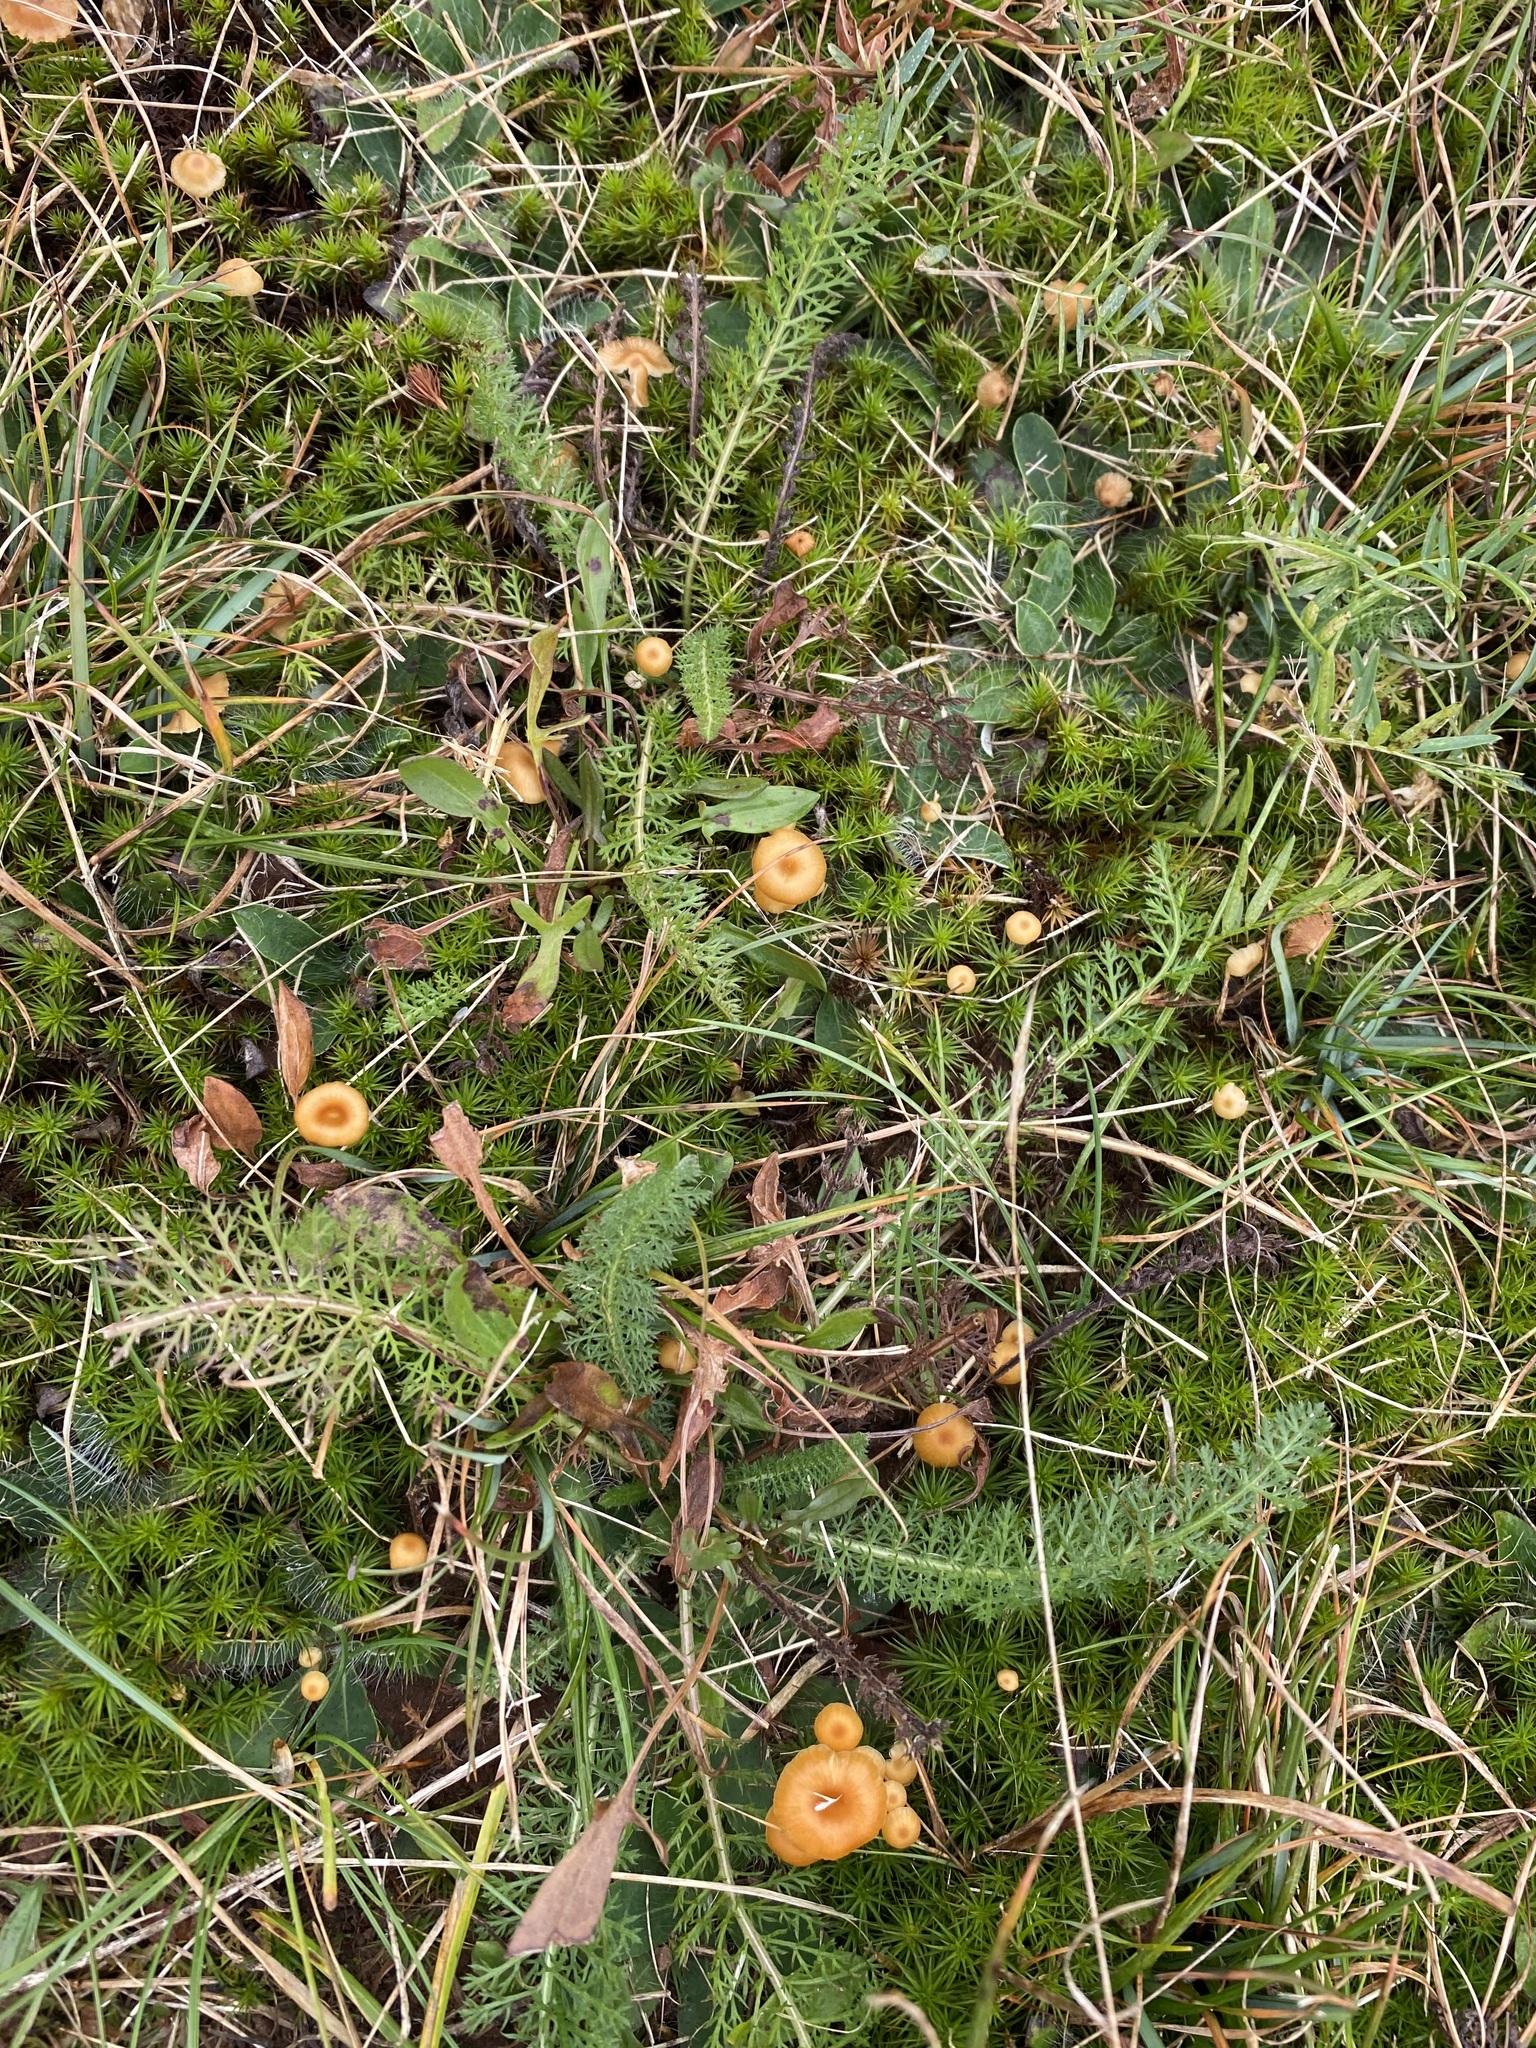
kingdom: Fungi
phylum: Basidiomycota
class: Agaricomycetes
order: Hymenochaetales
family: Rickenellaceae
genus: Rickenella
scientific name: Rickenella fibula
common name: Orange mosscap
